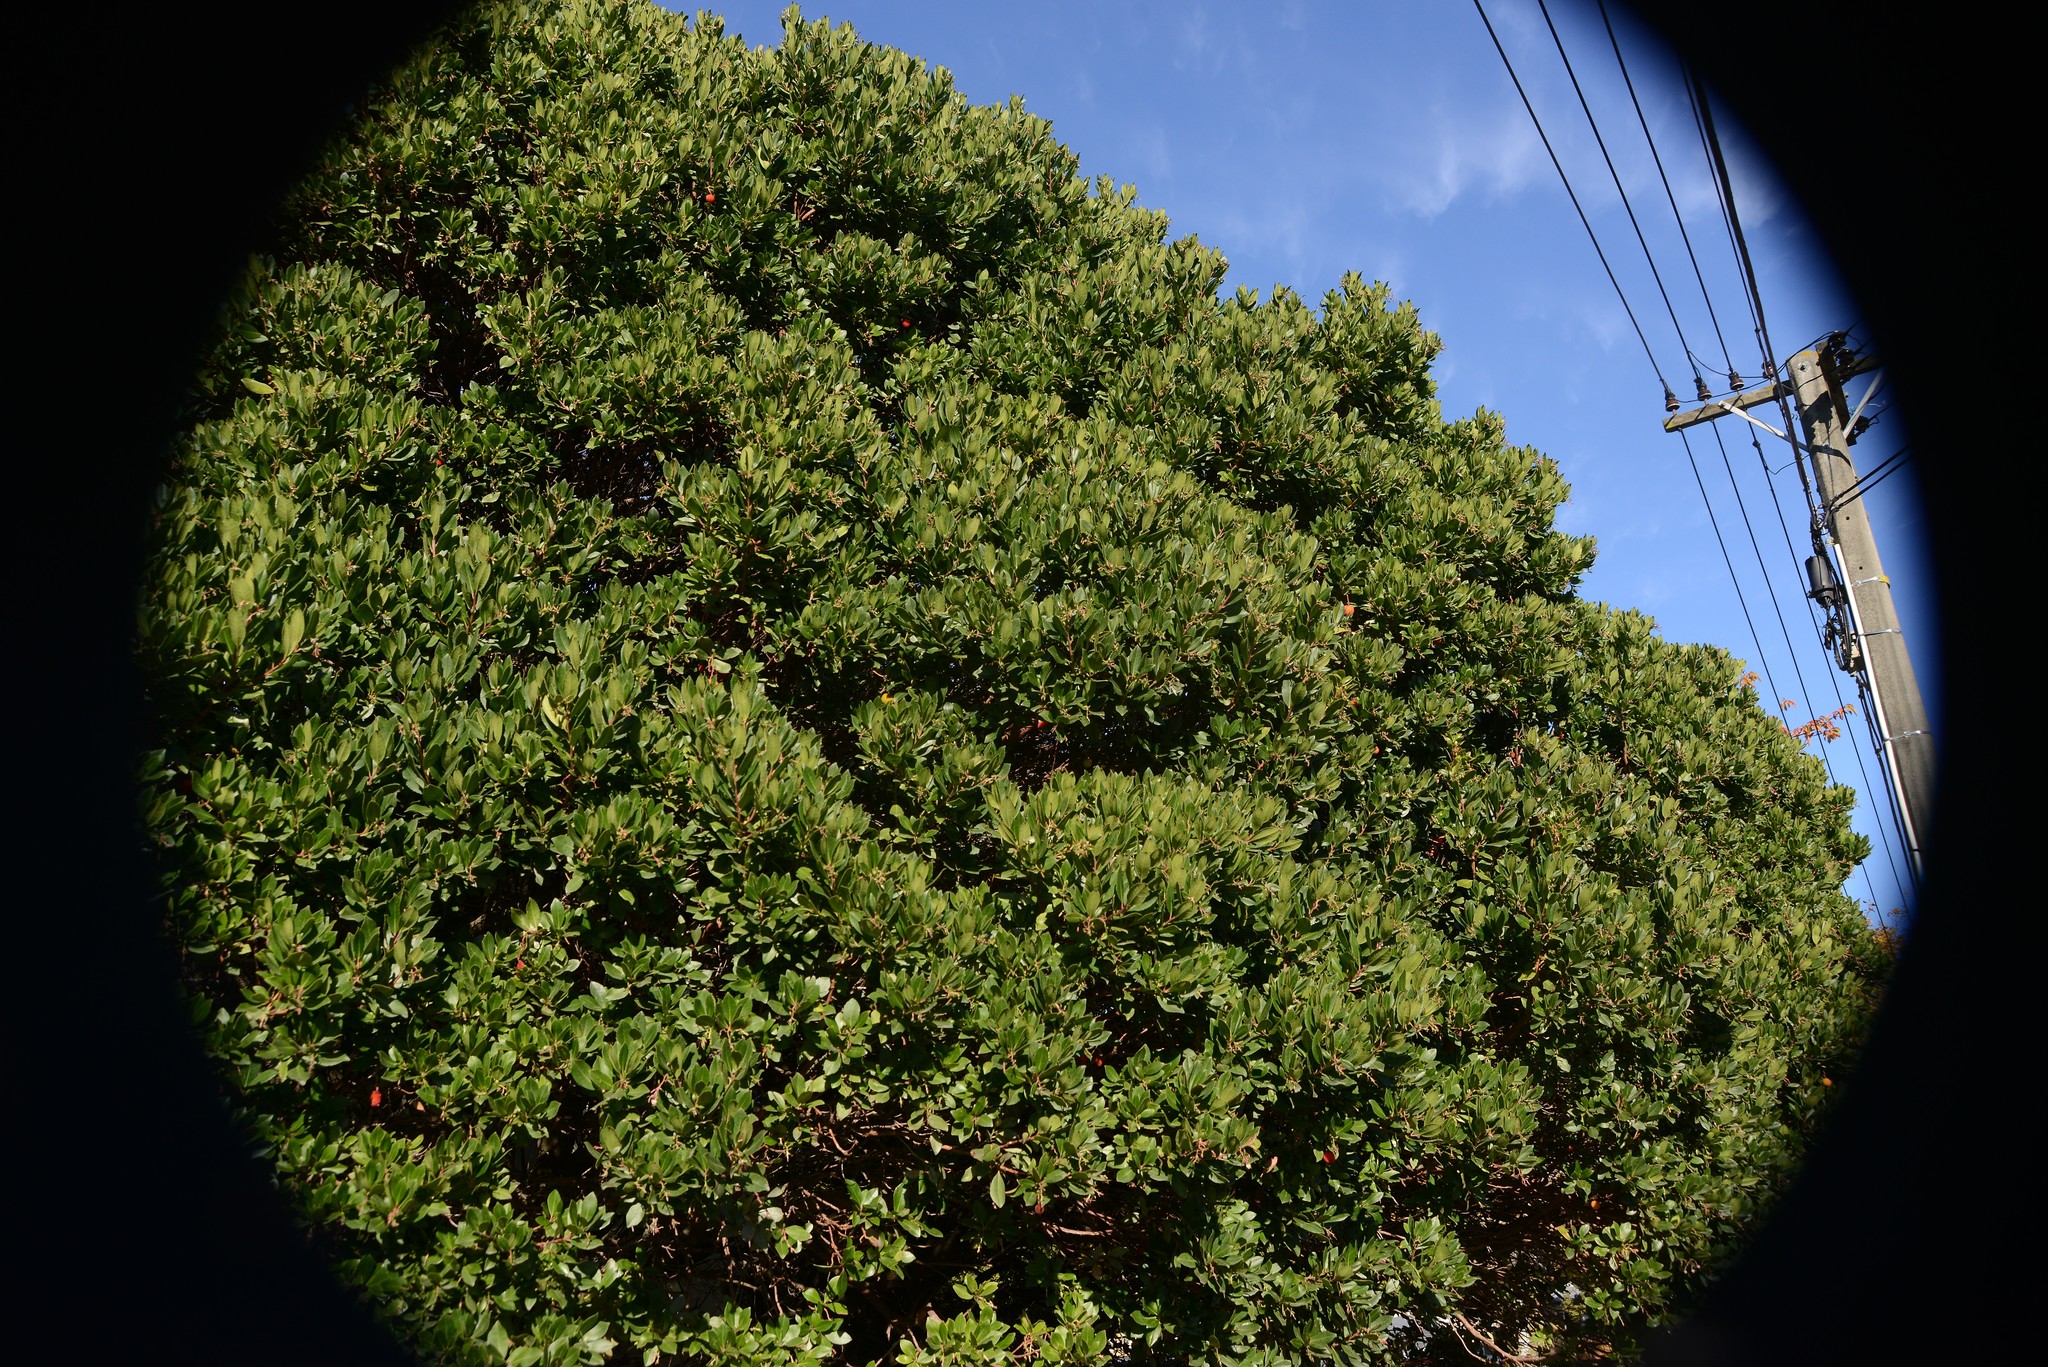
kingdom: Plantae
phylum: Tracheophyta
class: Magnoliopsida
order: Ericales
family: Ericaceae
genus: Arbutus
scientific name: Arbutus unedo
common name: Strawberry-tree
